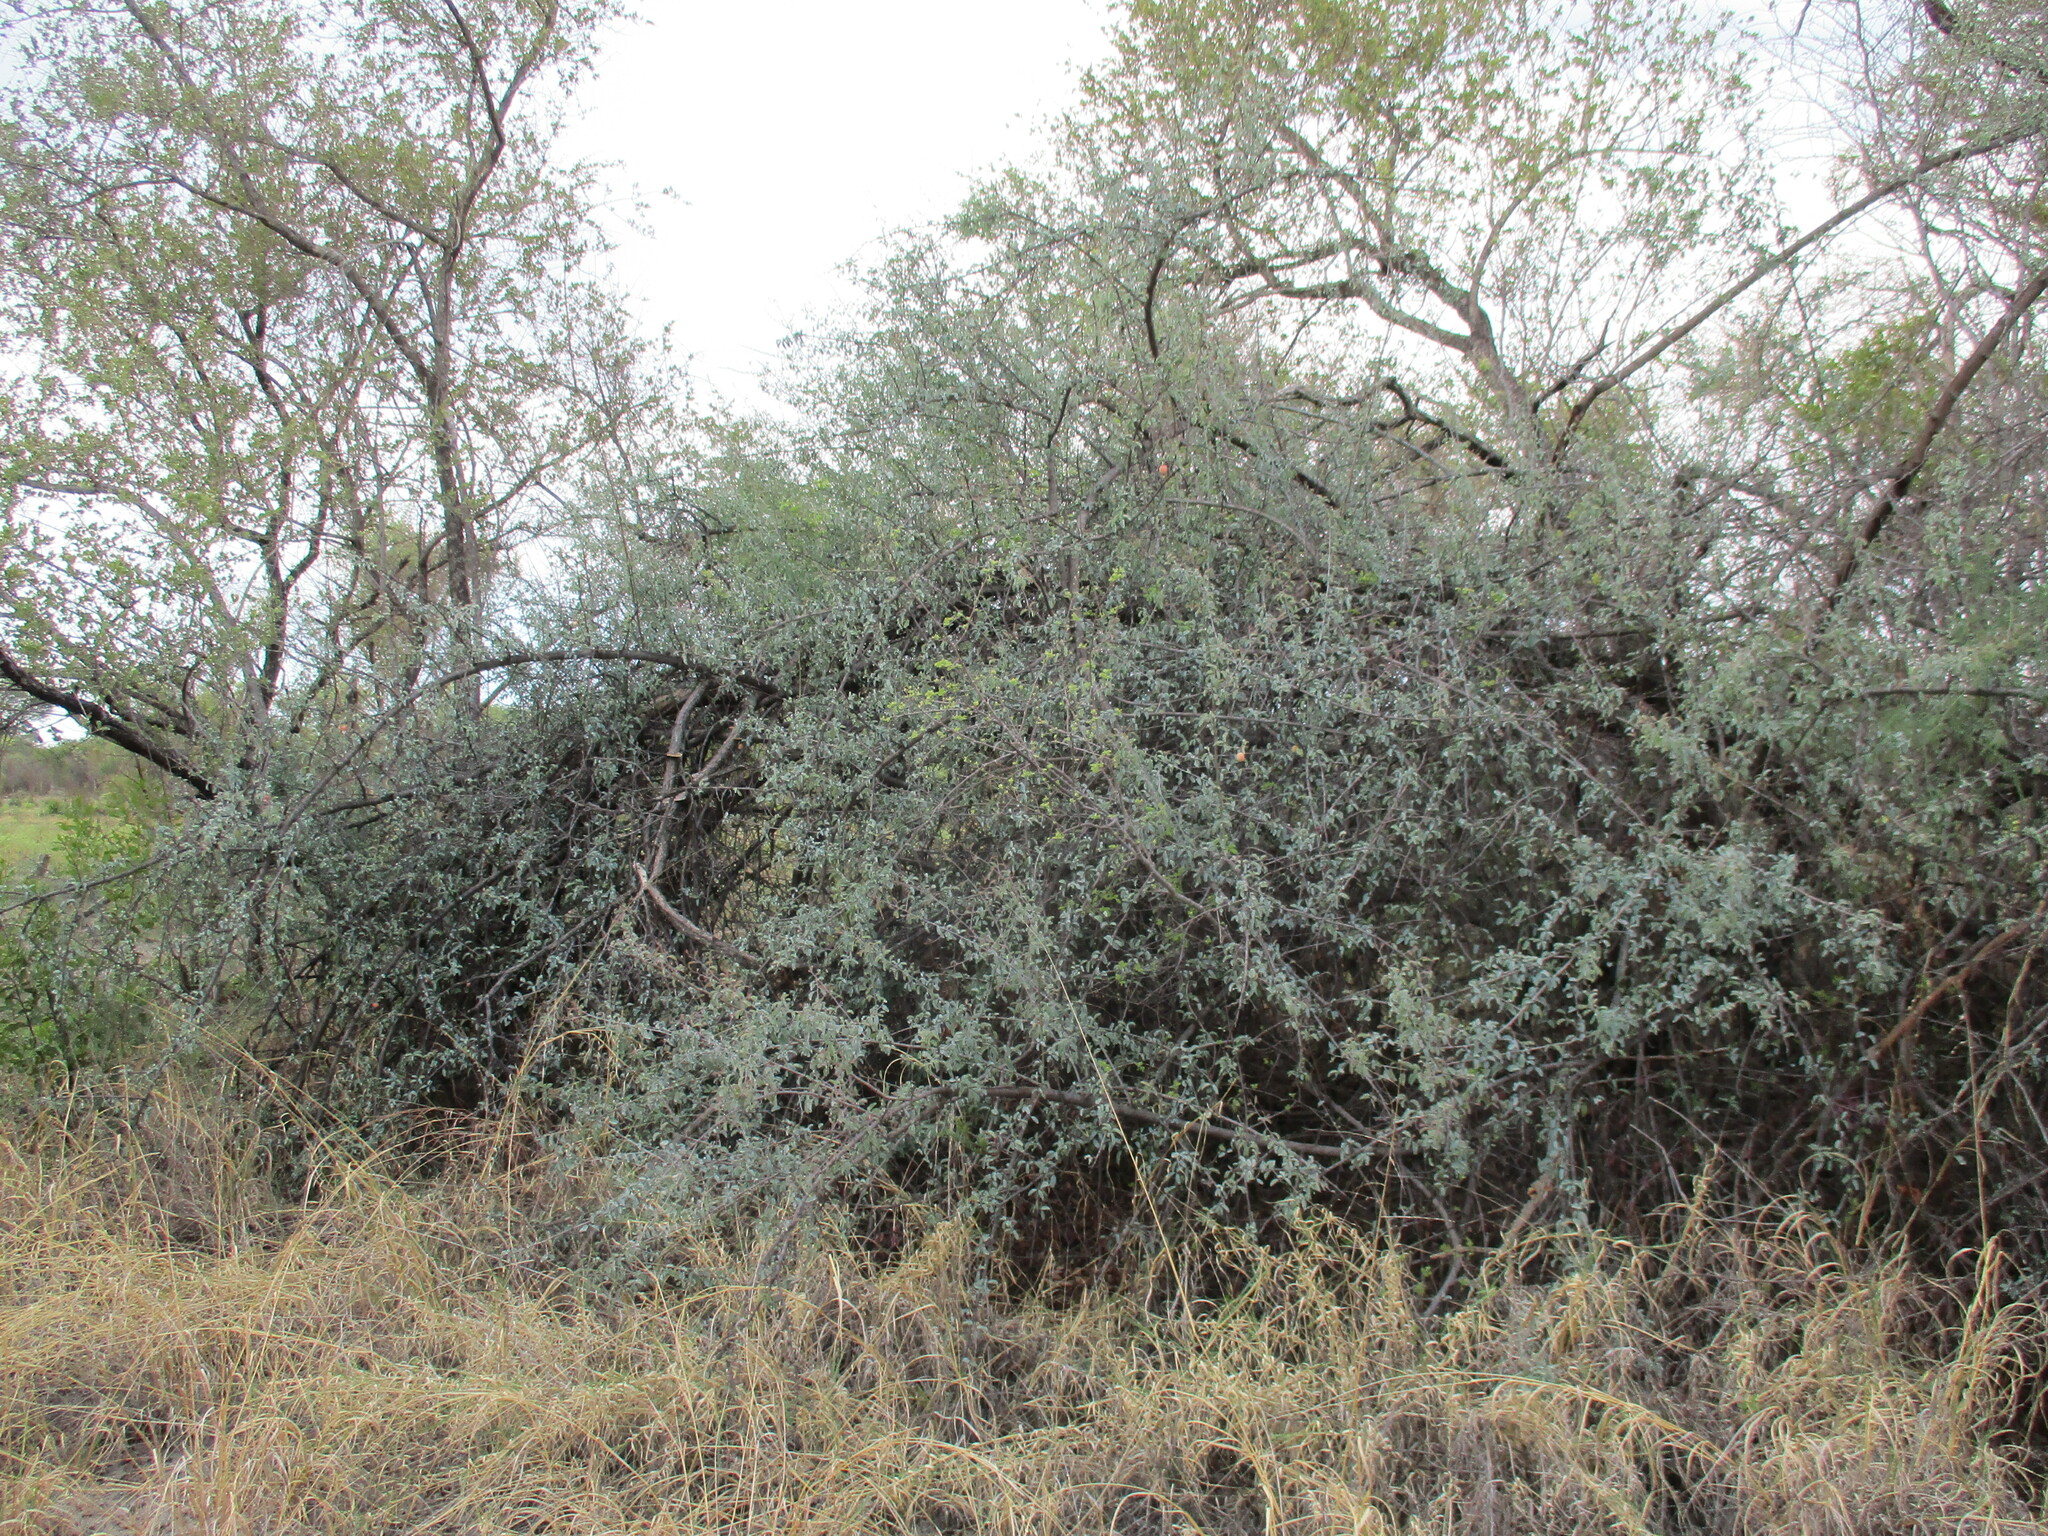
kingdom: Plantae
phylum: Tracheophyta
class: Magnoliopsida
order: Santalales
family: Ximeniaceae
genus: Ximenia
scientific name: Ximenia americana
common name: Tallowwood
